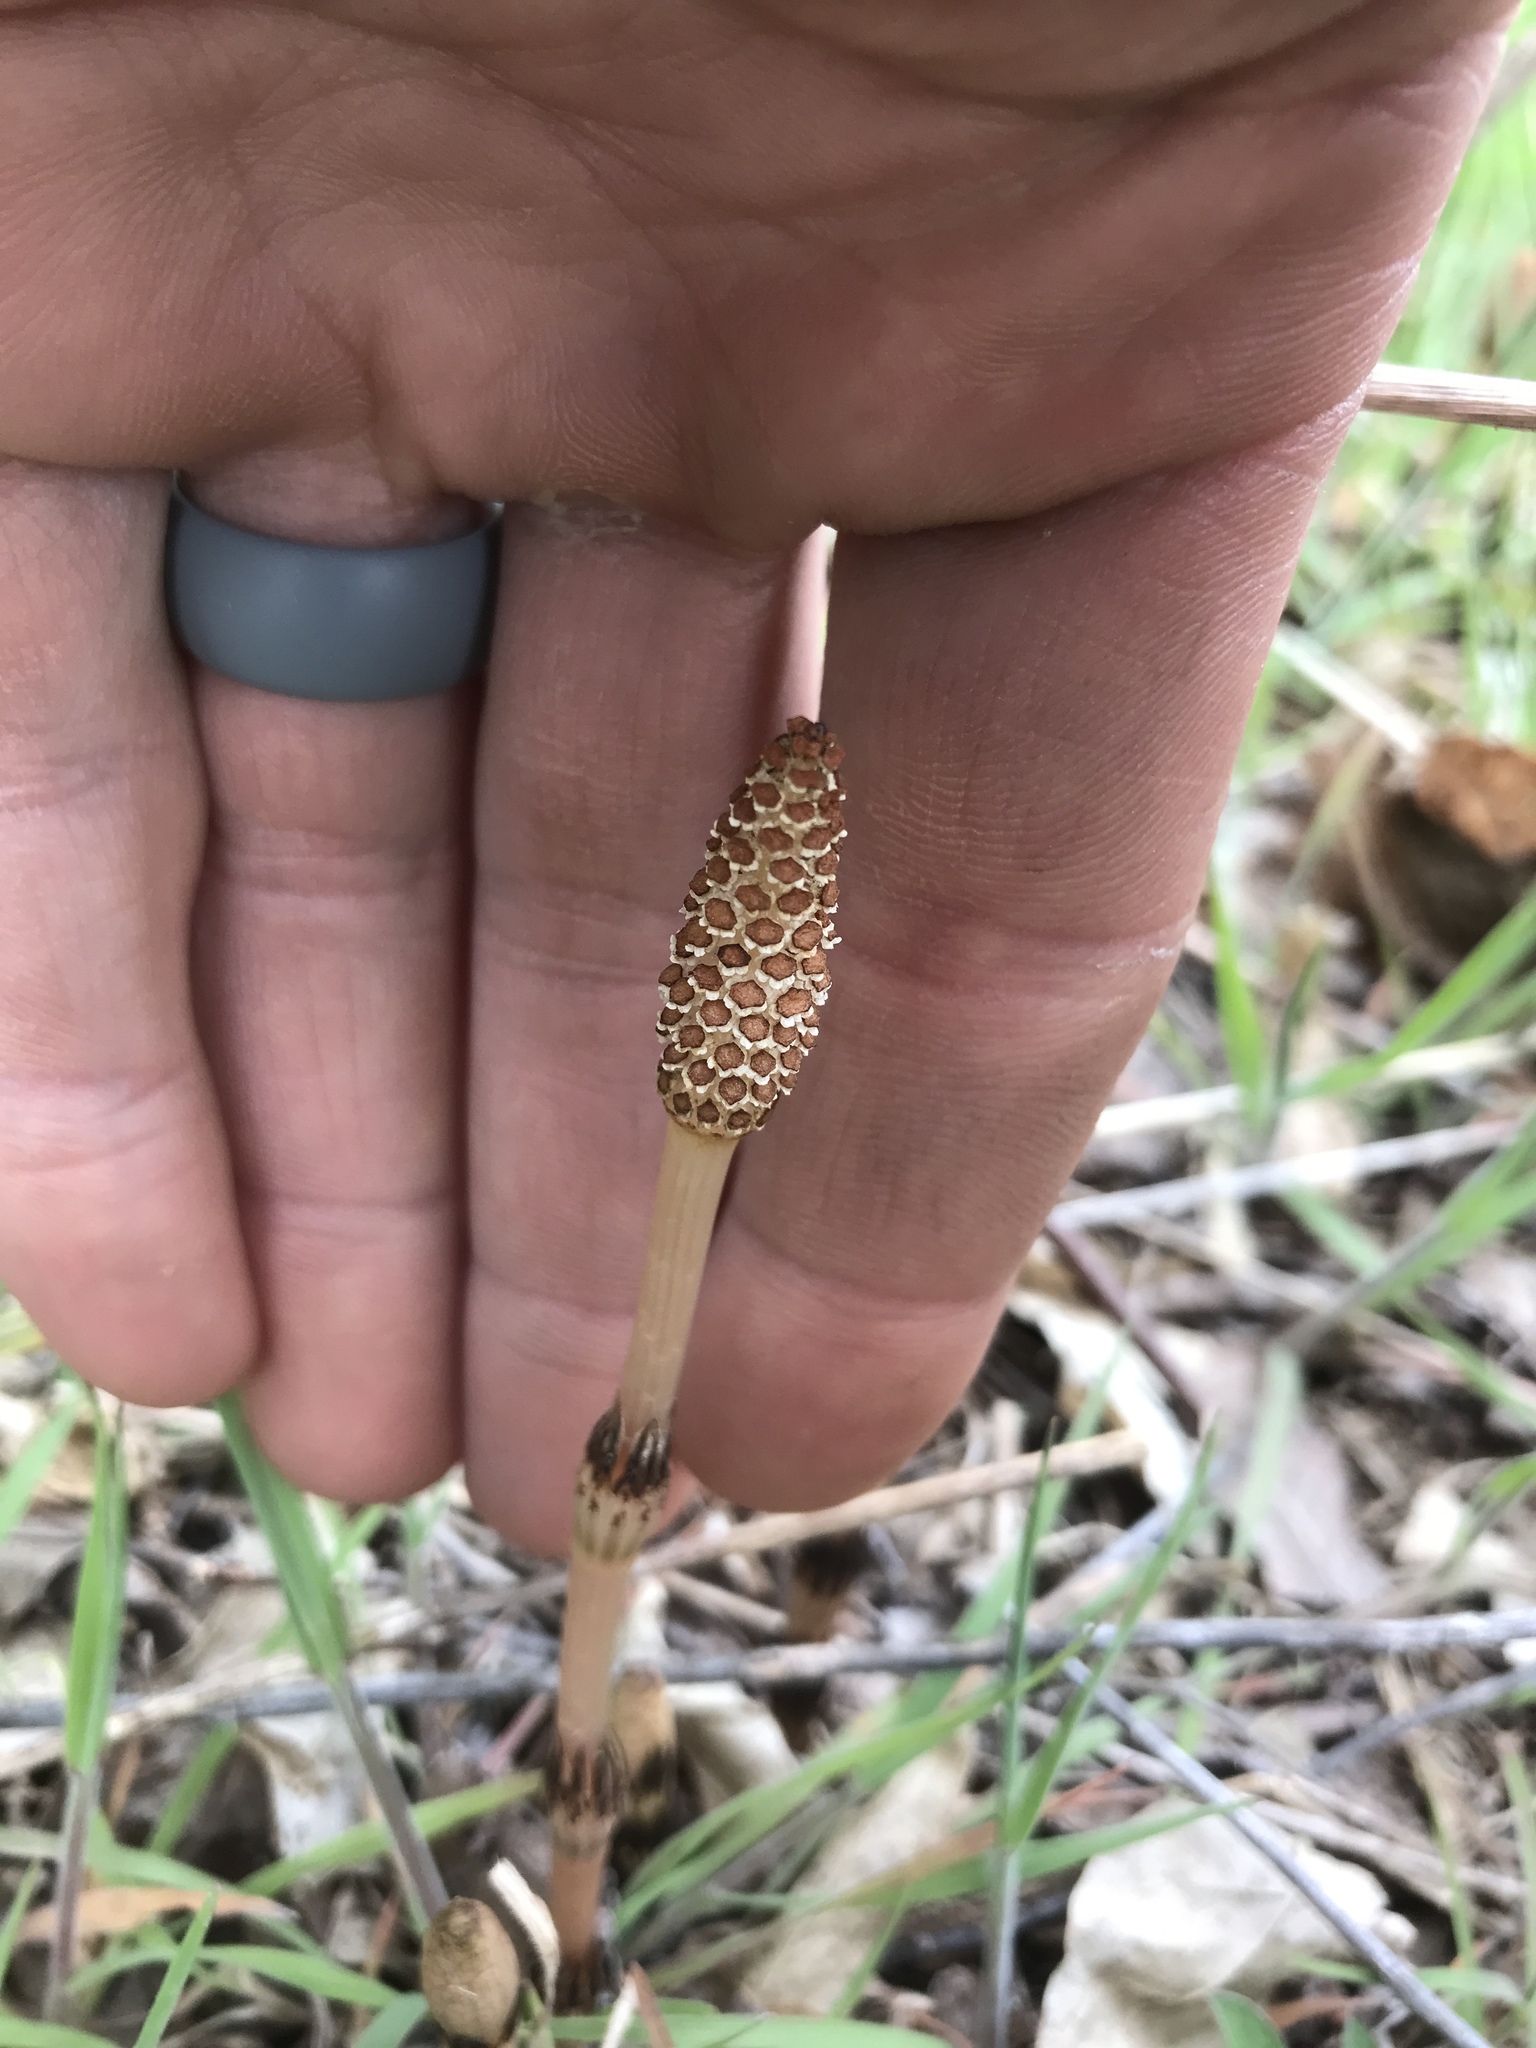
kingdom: Plantae
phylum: Tracheophyta
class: Polypodiopsida
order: Equisetales
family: Equisetaceae
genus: Equisetum
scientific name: Equisetum arvense
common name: Field horsetail
